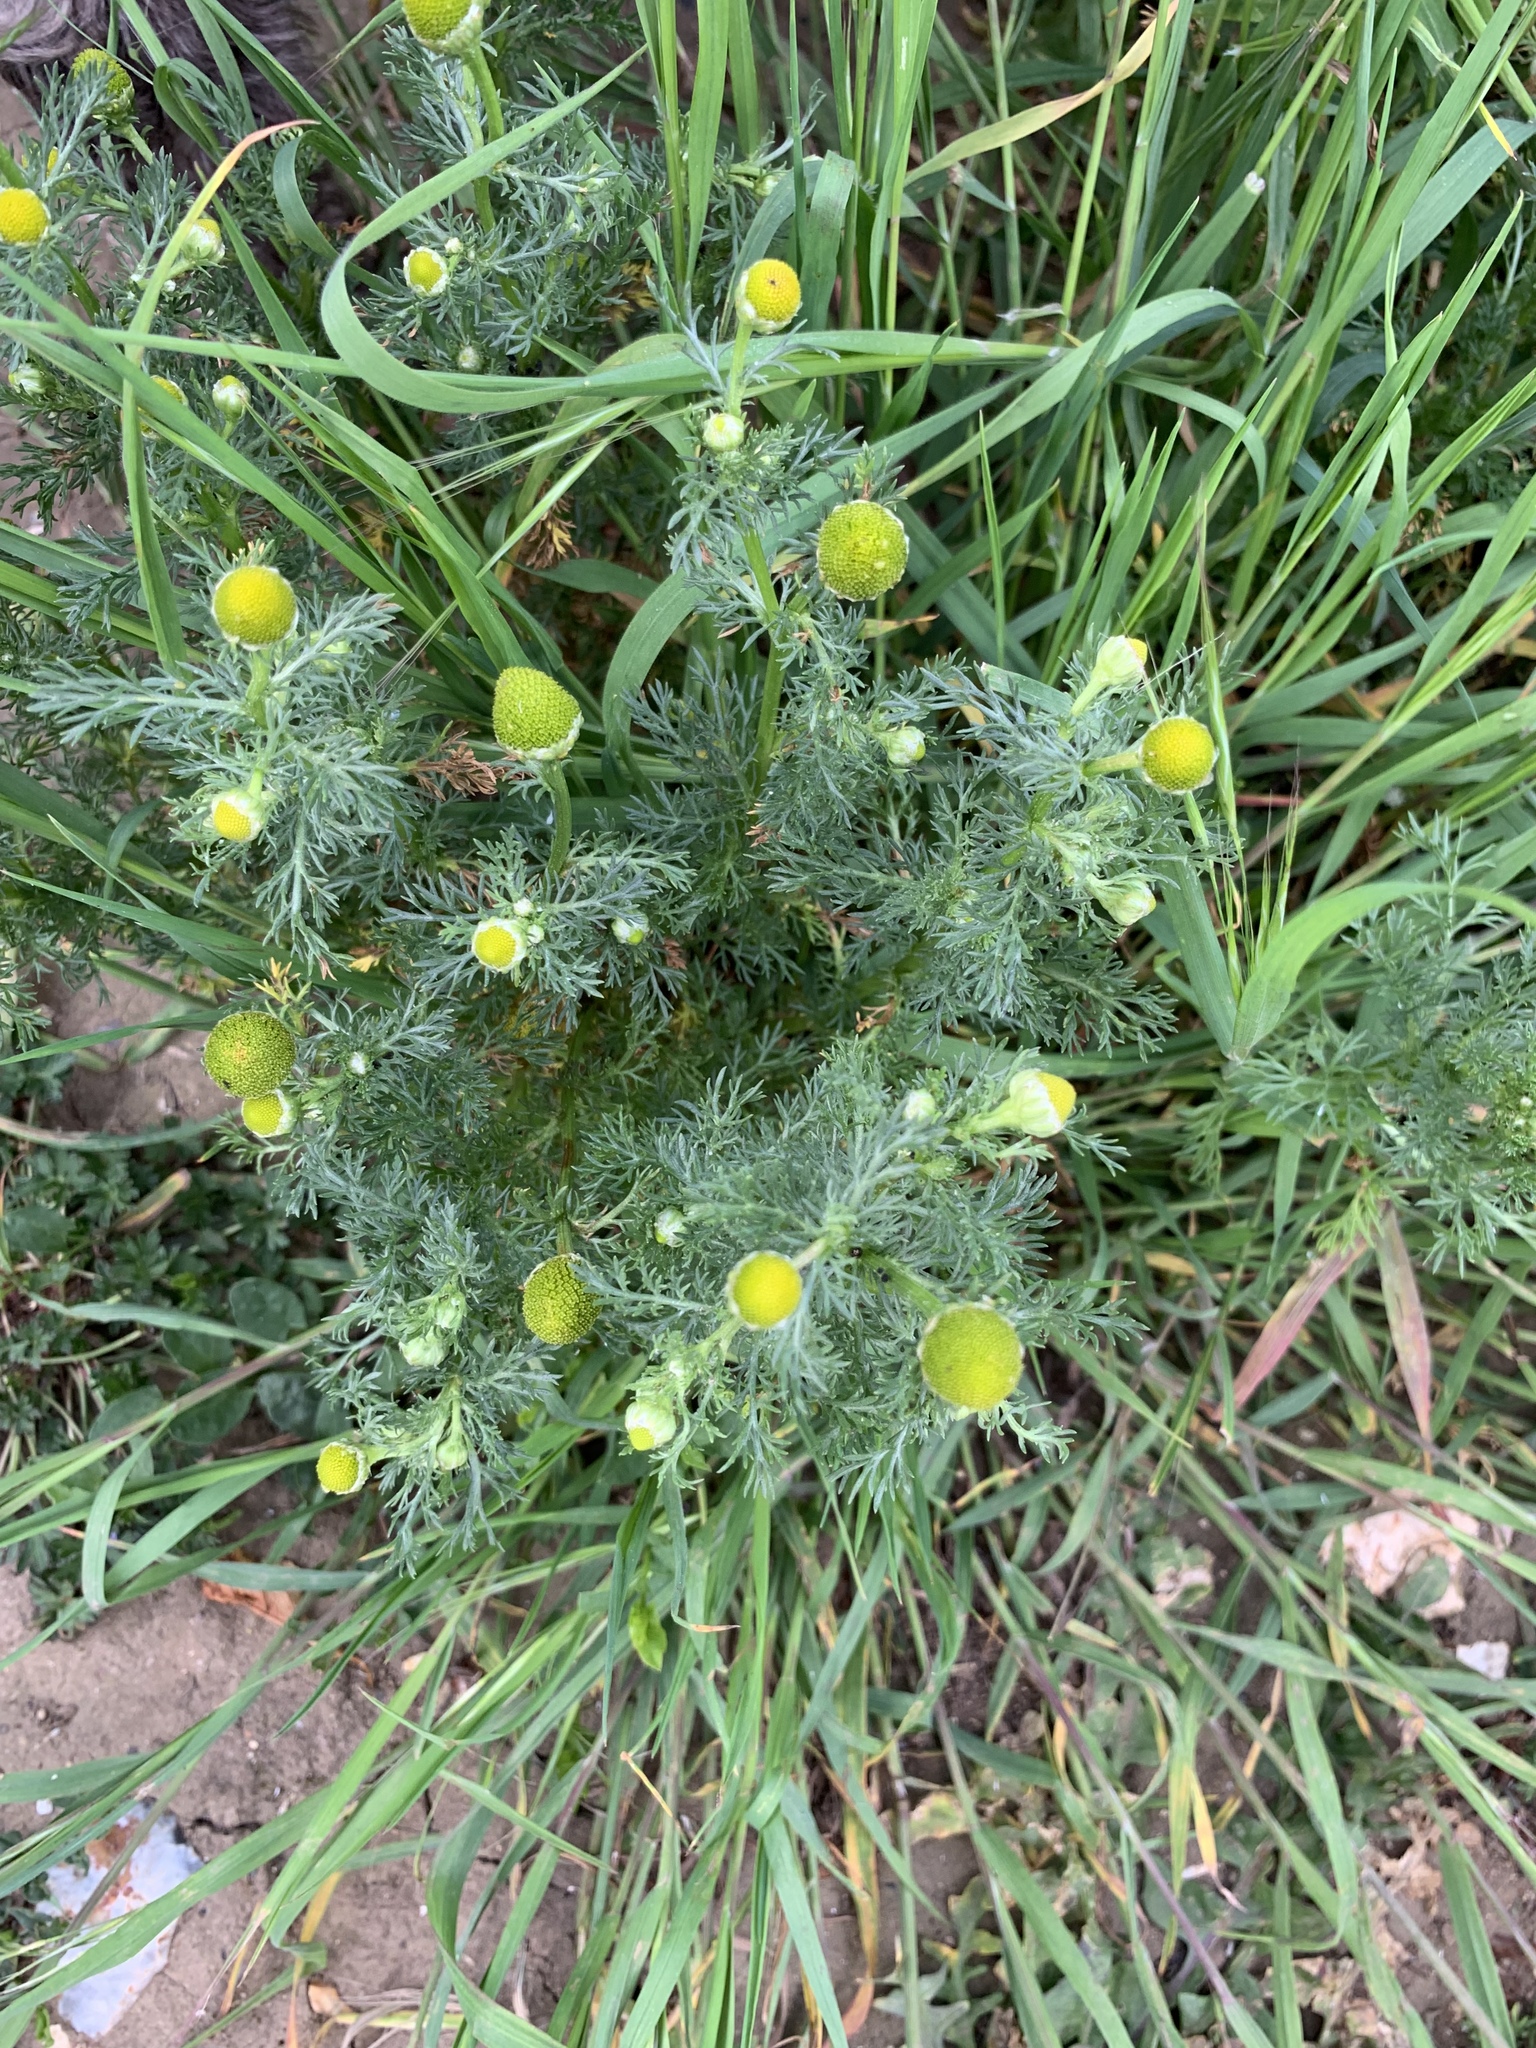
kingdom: Plantae
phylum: Tracheophyta
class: Magnoliopsida
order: Asterales
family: Asteraceae
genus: Matricaria
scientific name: Matricaria discoidea
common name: Disc mayweed
